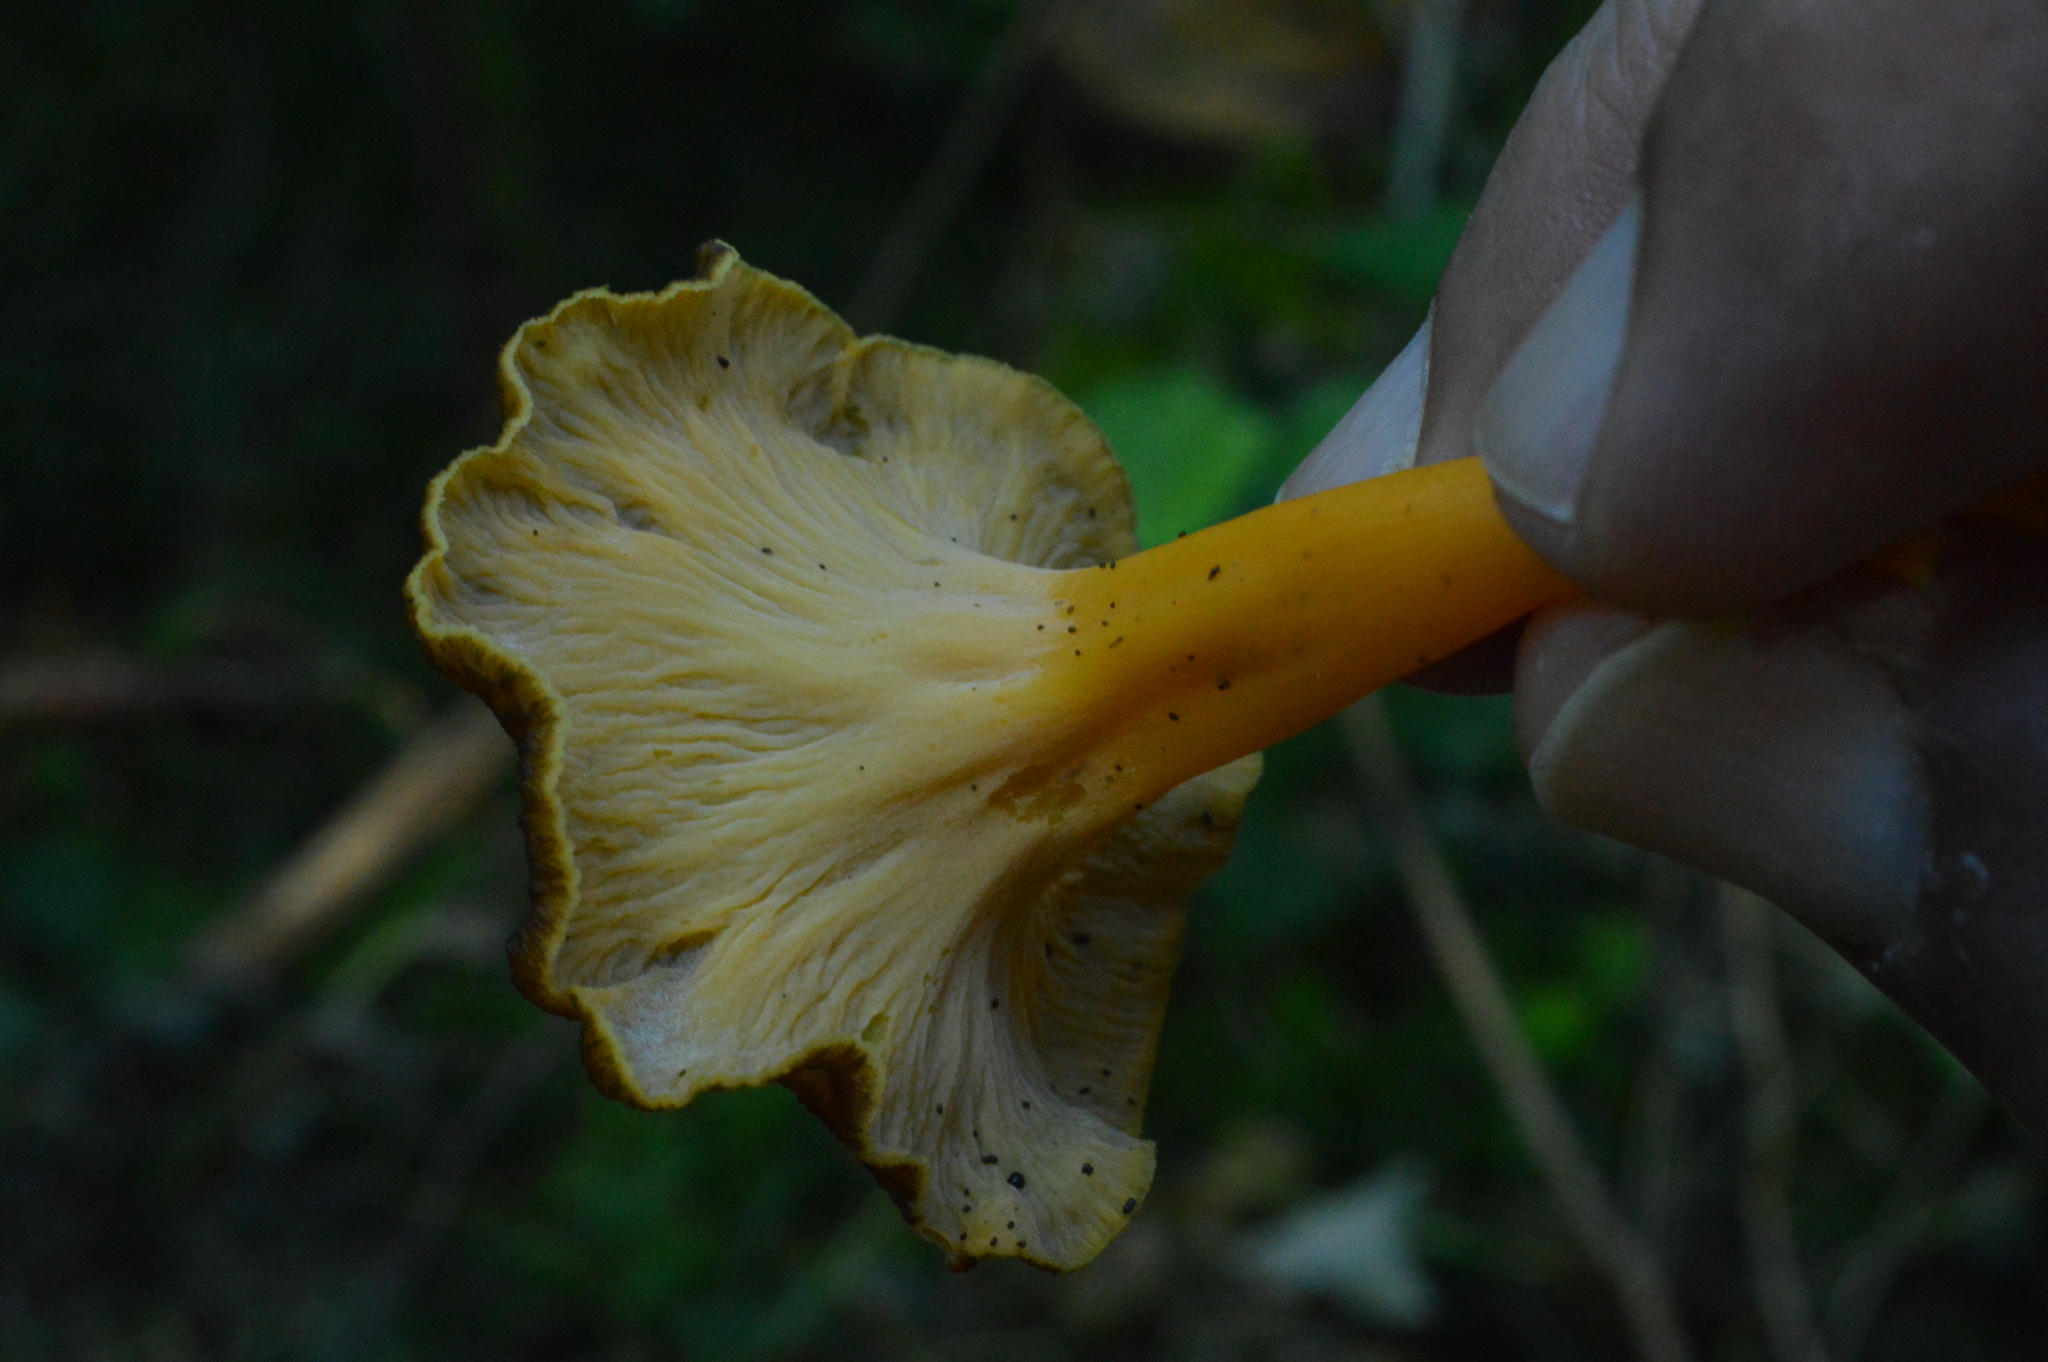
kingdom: Fungi
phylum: Basidiomycota
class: Agaricomycetes
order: Cantharellales
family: Hydnaceae
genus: Craterellus
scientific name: Craterellus lutescens
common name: Golden chanterelle
